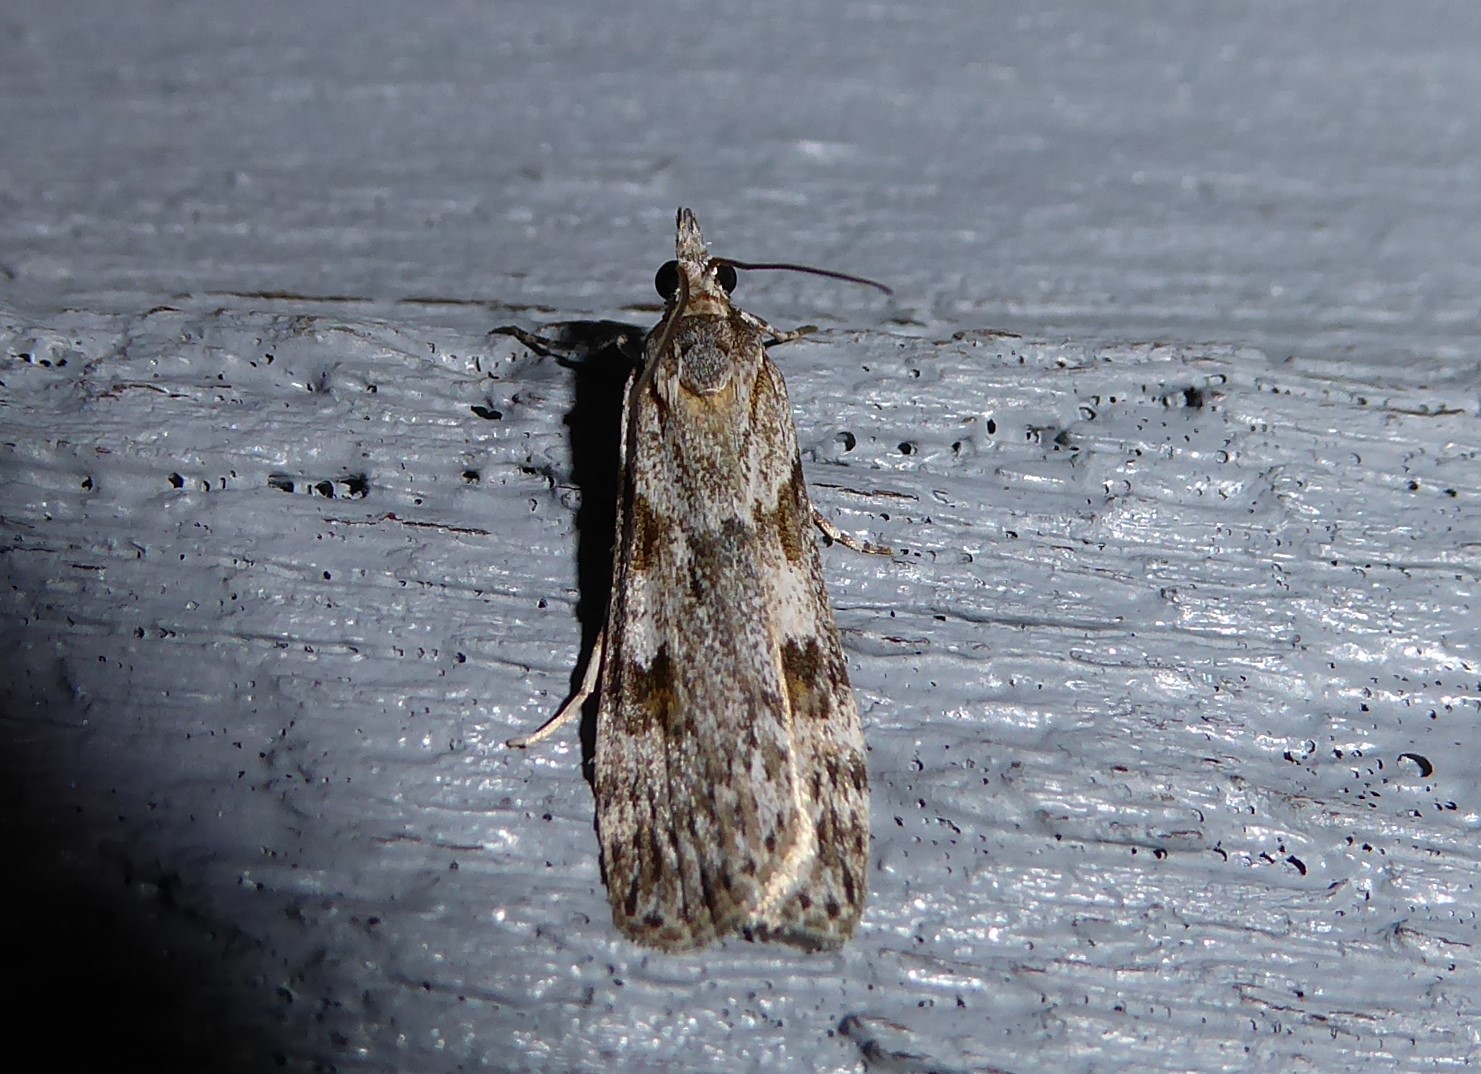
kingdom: Animalia
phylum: Arthropoda
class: Insecta
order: Lepidoptera
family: Crambidae
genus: Scoparia
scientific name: Scoparia halopis
